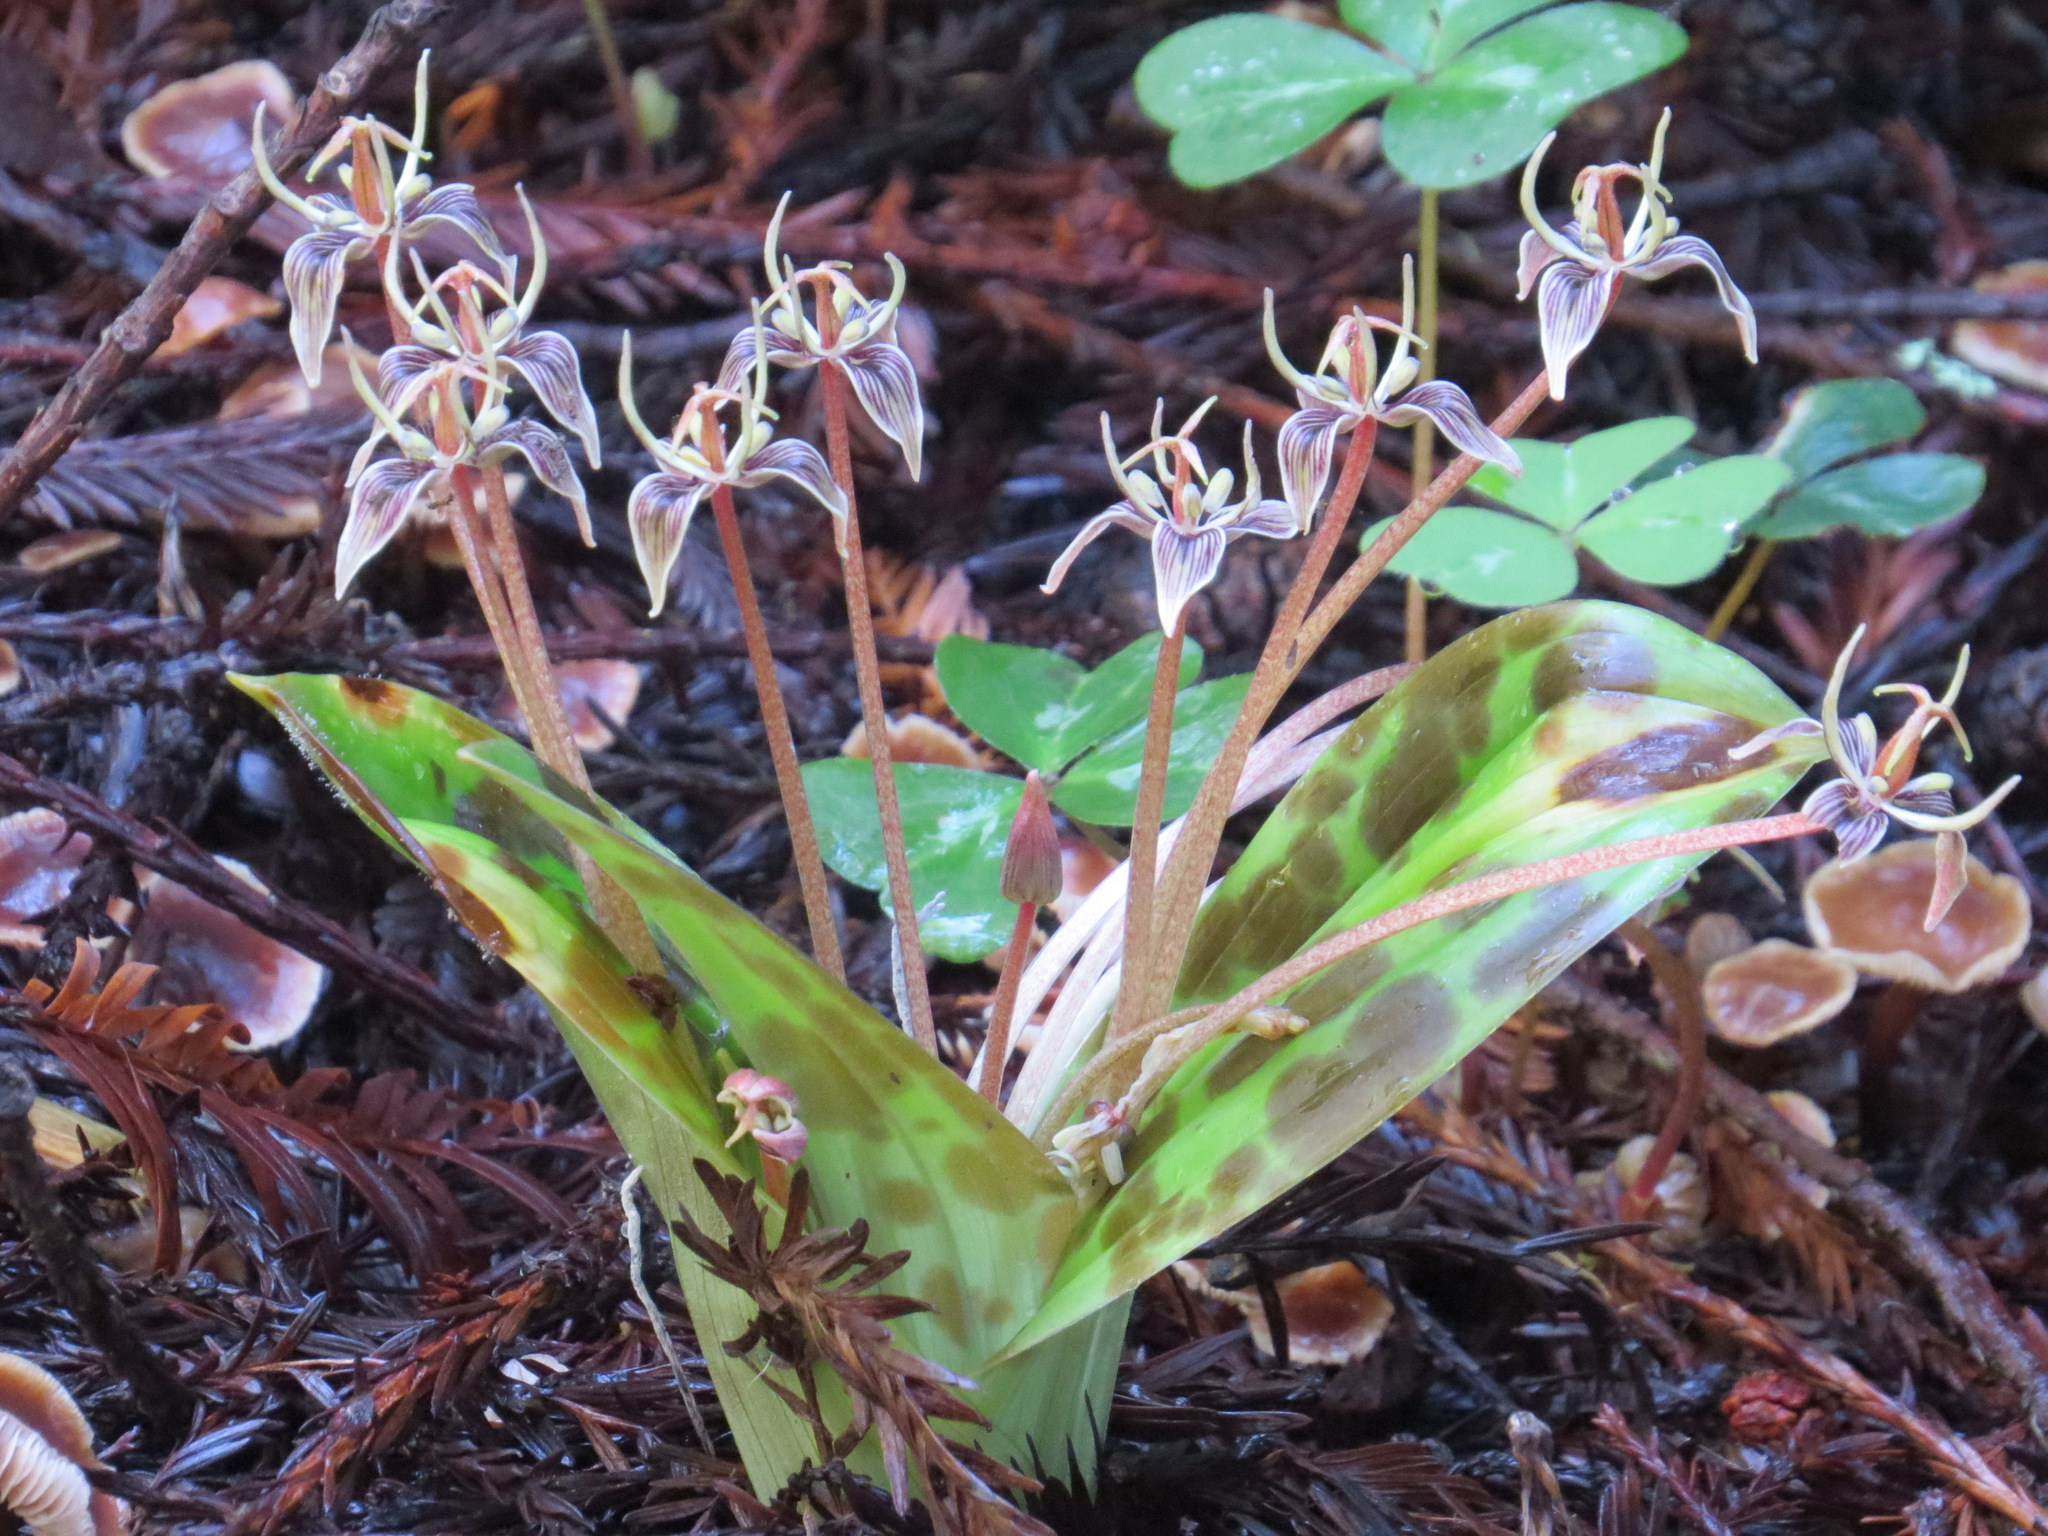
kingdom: Plantae
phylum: Tracheophyta
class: Liliopsida
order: Liliales
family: Liliaceae
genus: Scoliopus
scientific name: Scoliopus bigelovii
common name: Foetid adder's-tongue
